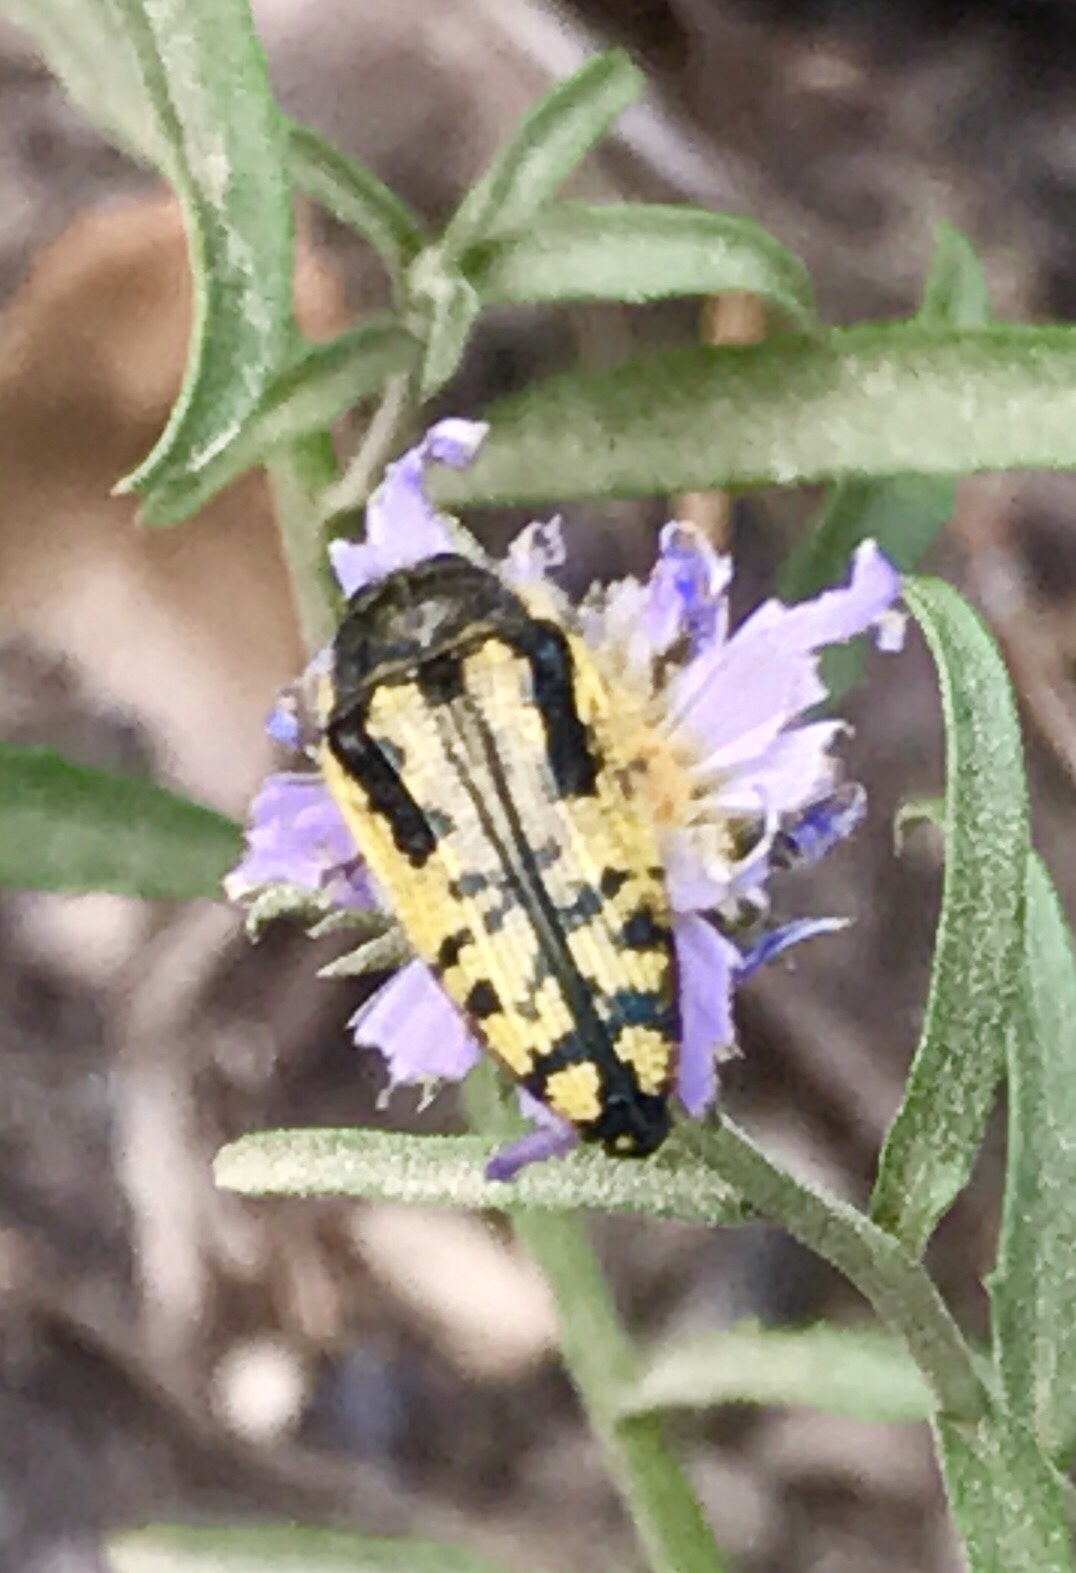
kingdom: Animalia
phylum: Arthropoda
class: Insecta
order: Coleoptera
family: Buprestidae
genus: Acmaeodera
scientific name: Acmaeodera amplicollis
